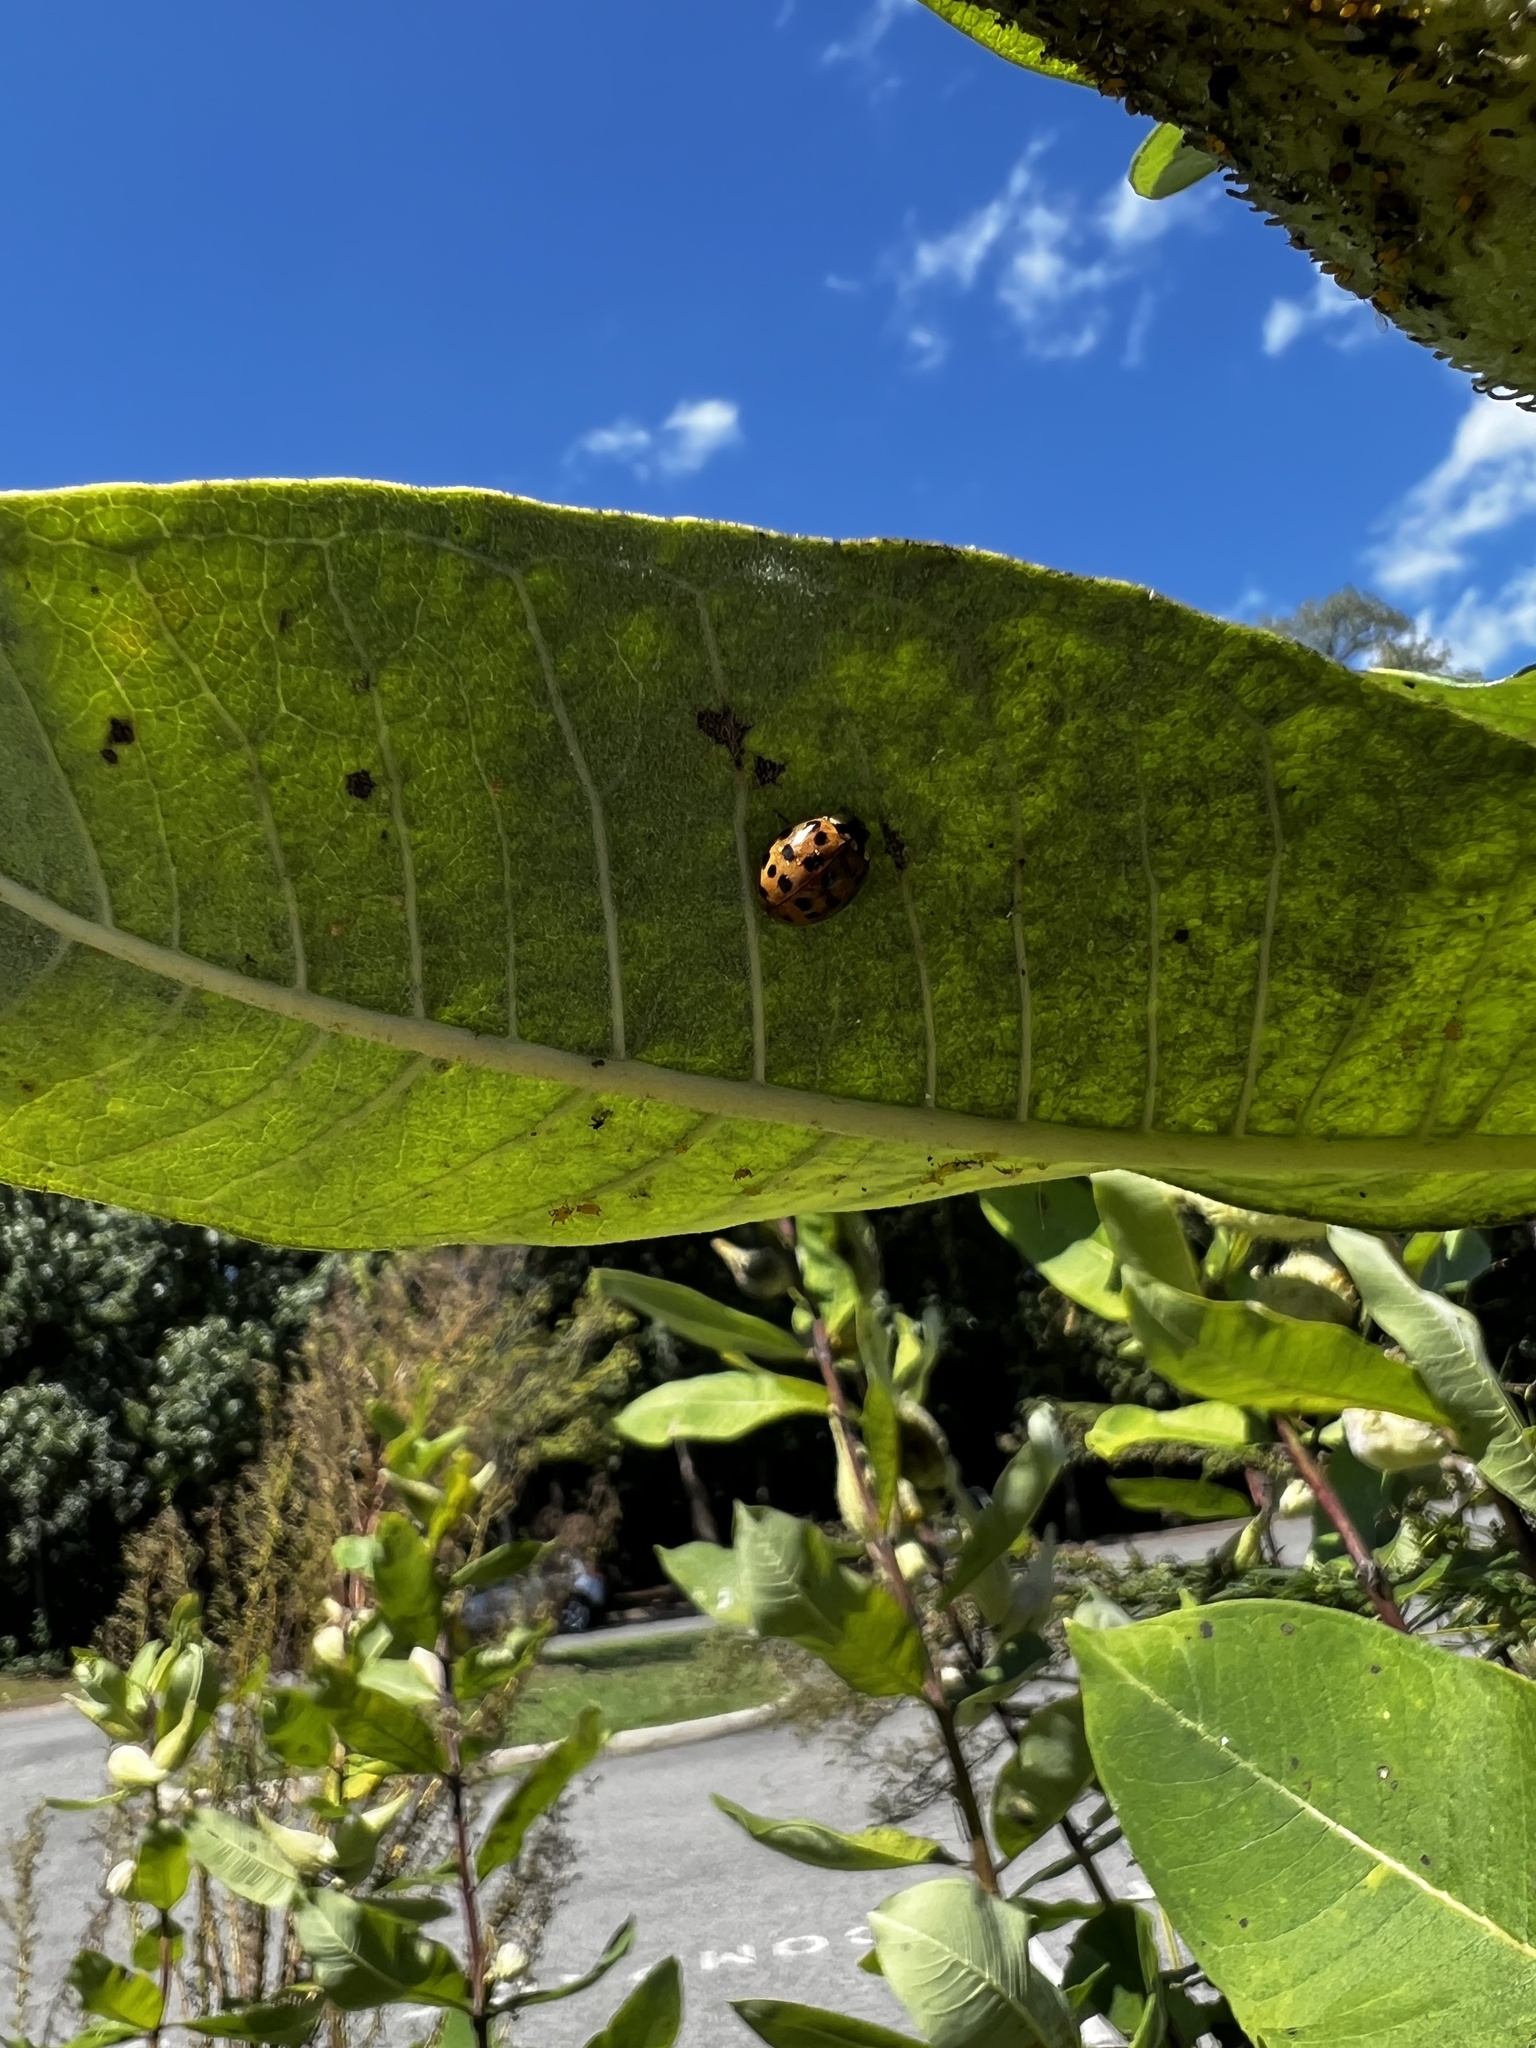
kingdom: Animalia
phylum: Arthropoda
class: Insecta
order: Coleoptera
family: Coccinellidae
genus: Harmonia
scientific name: Harmonia axyridis
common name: Harlequin ladybird
